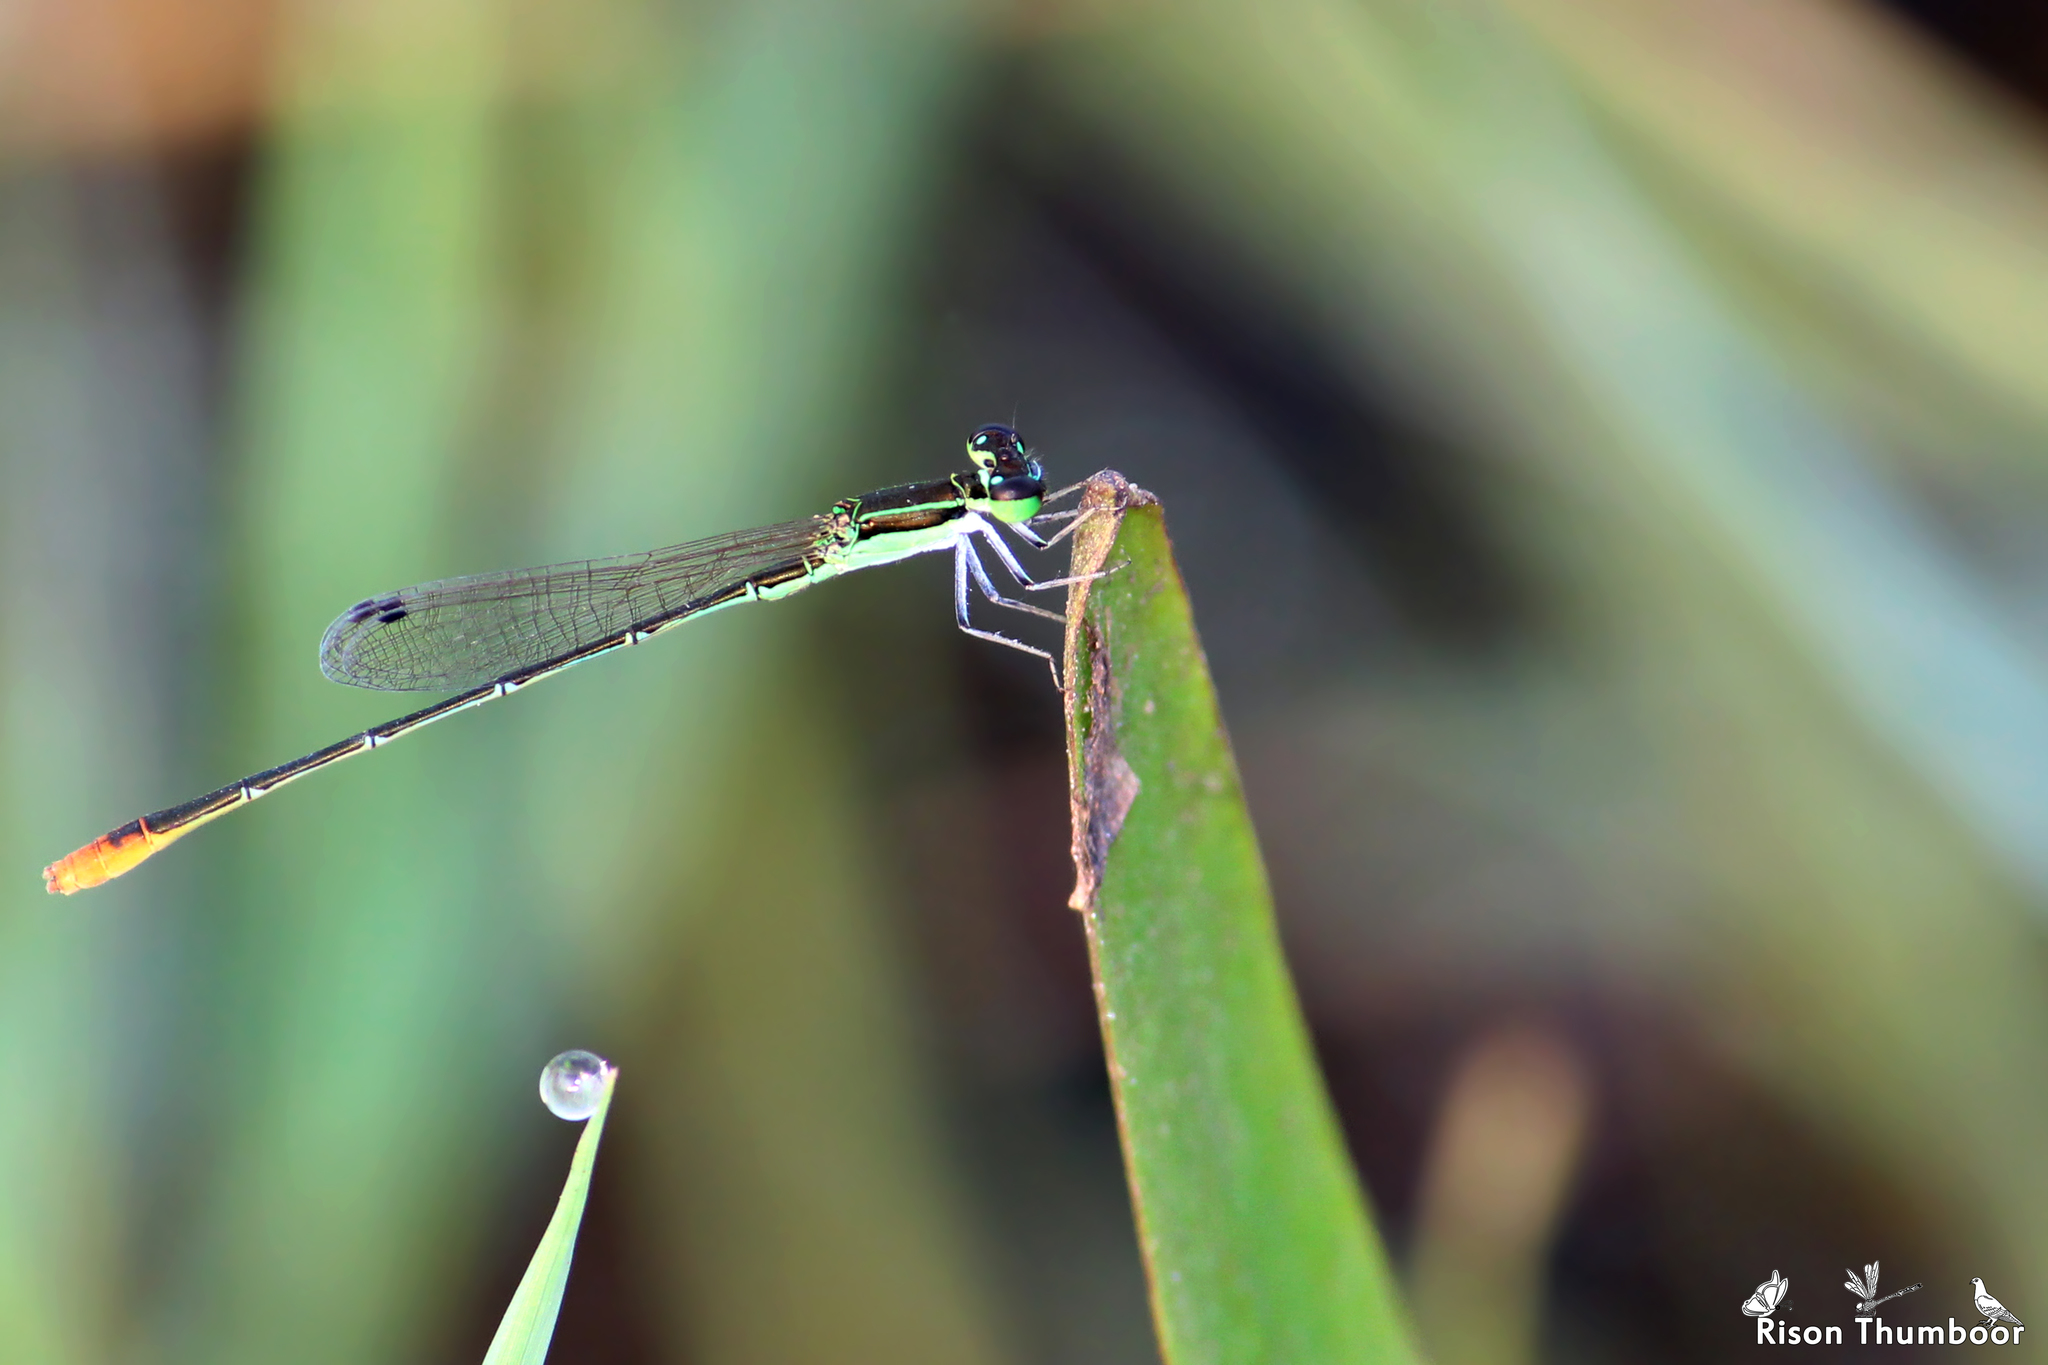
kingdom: Animalia
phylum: Arthropoda
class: Insecta
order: Odonata
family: Coenagrionidae
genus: Agriocnemis
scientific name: Agriocnemis pygmaea
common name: Pygmy wisp
